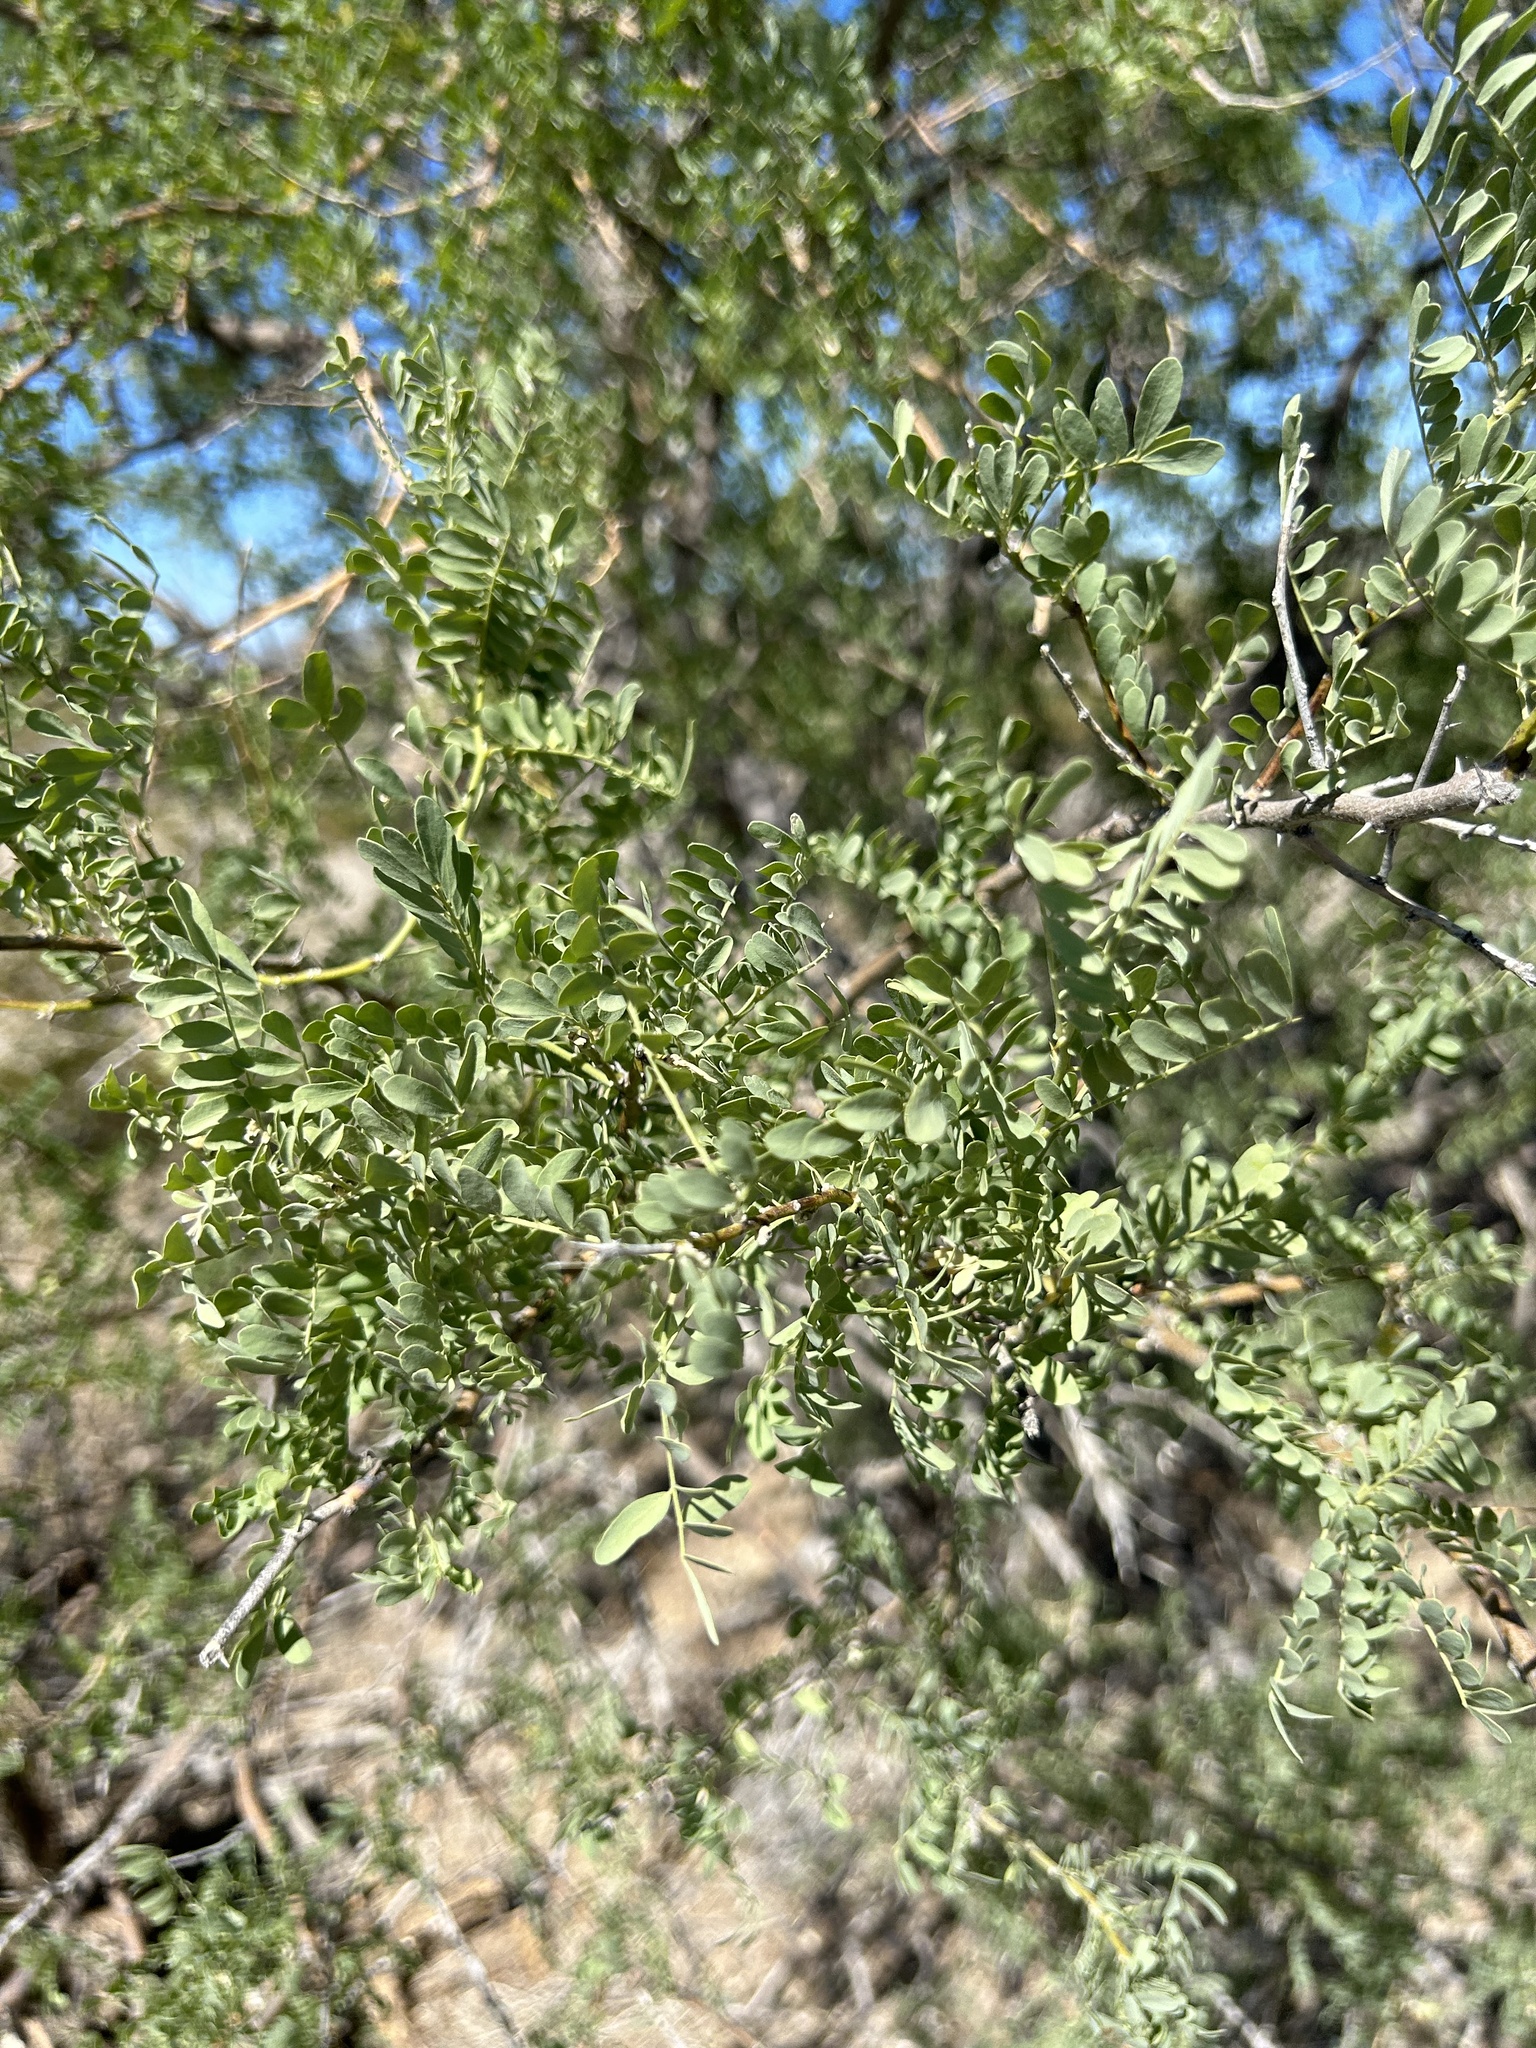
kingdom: Plantae
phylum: Tracheophyta
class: Magnoliopsida
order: Fabales
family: Fabaceae
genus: Olneya
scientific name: Olneya tesota
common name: Desert ironwood
